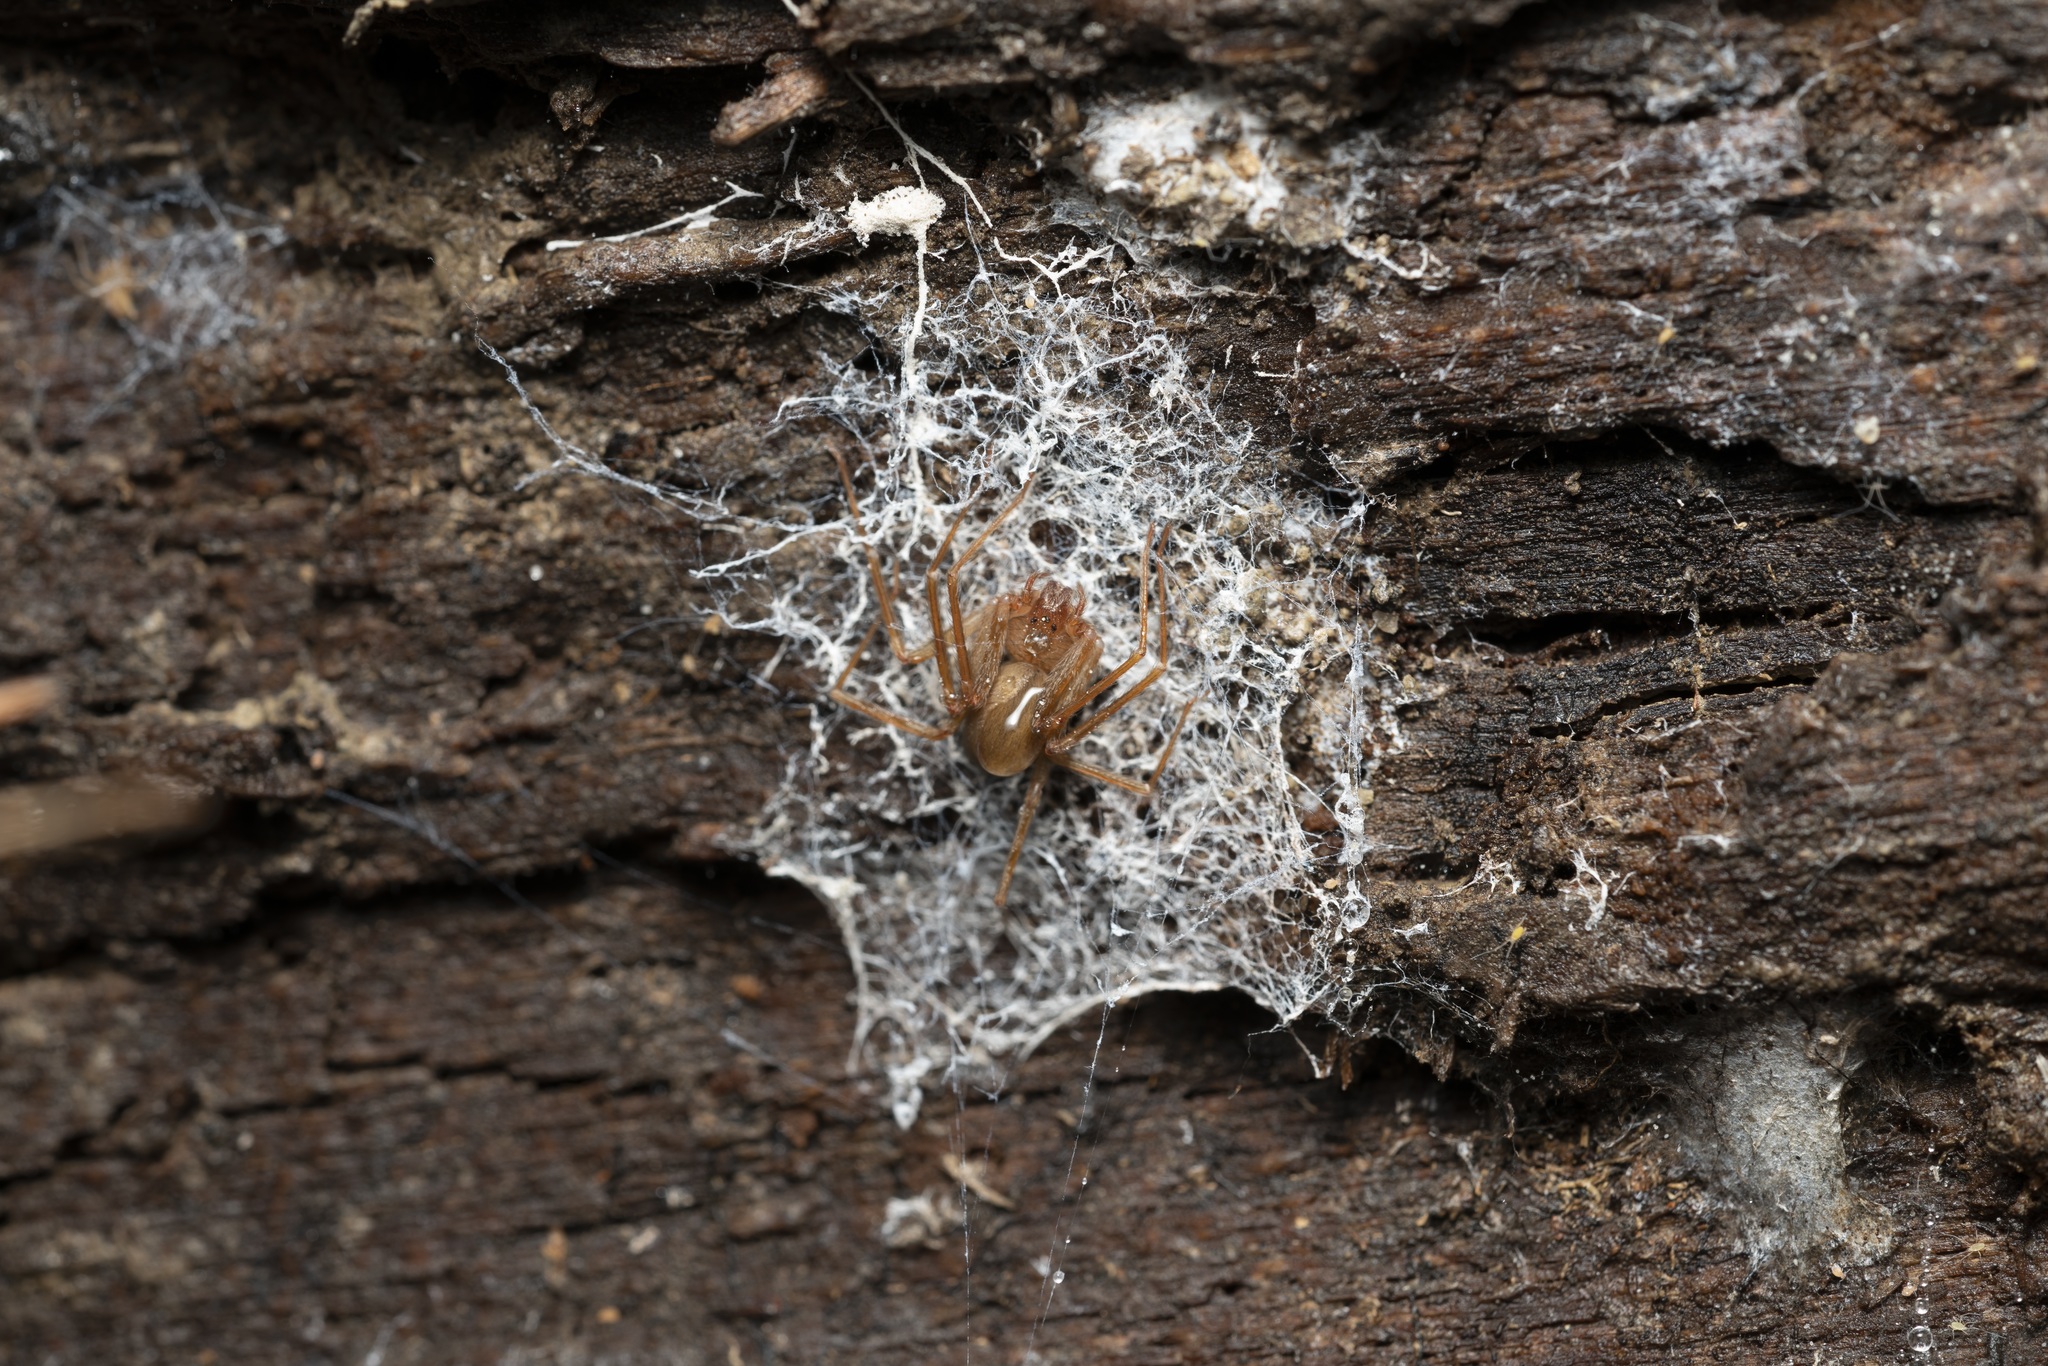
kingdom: Animalia
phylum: Arthropoda
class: Arachnida
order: Araneae
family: Sicariidae
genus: Loxosceles
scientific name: Loxosceles rufescens
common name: Mediterranean recluse spider
